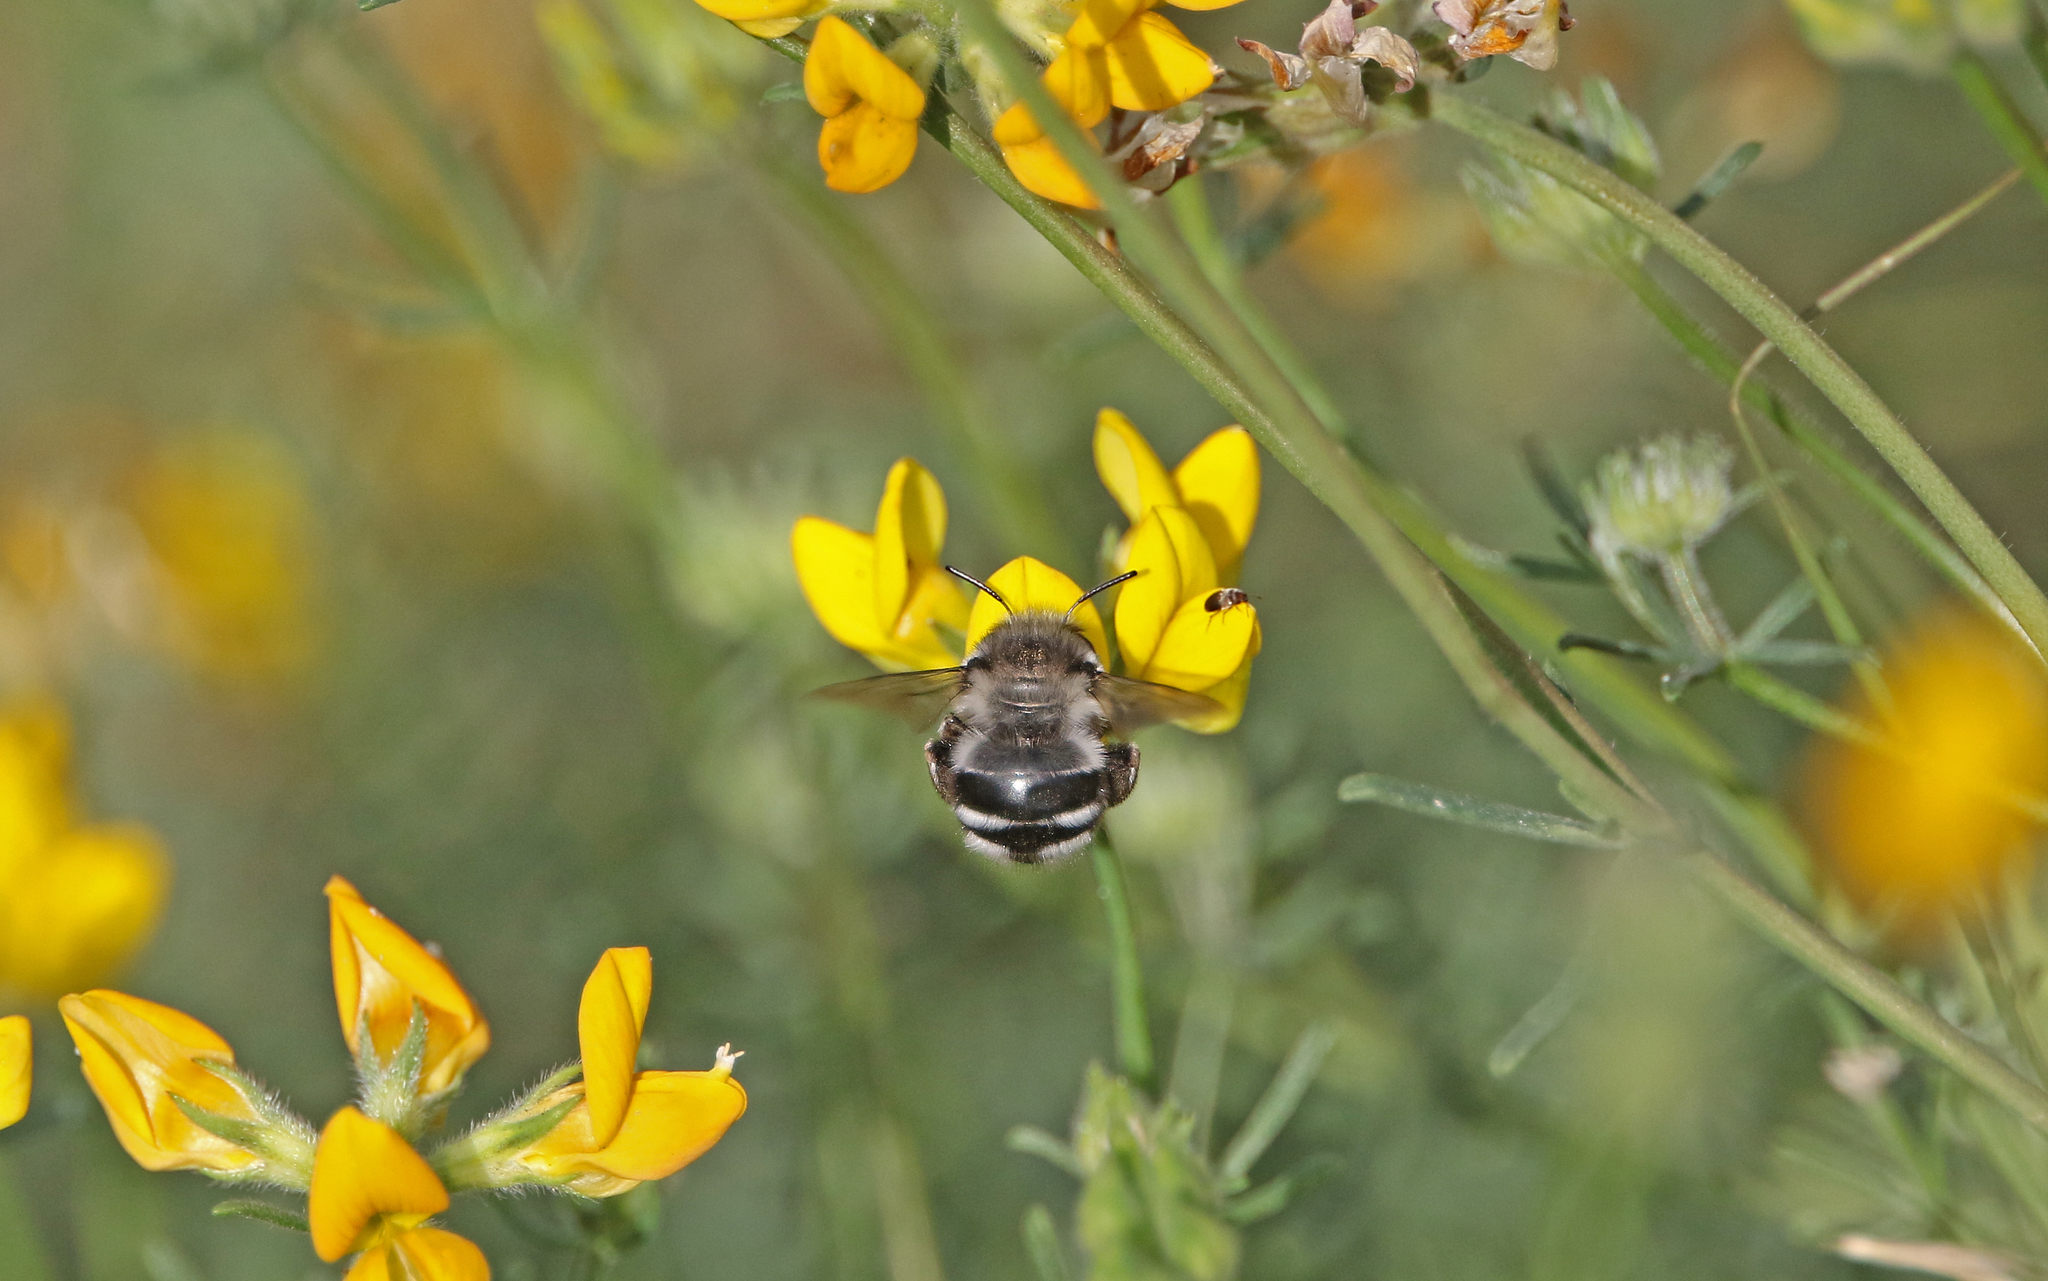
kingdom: Animalia
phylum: Arthropoda
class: Insecta
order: Hymenoptera
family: Apidae
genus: Anthophora
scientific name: Anthophora alluaudi
